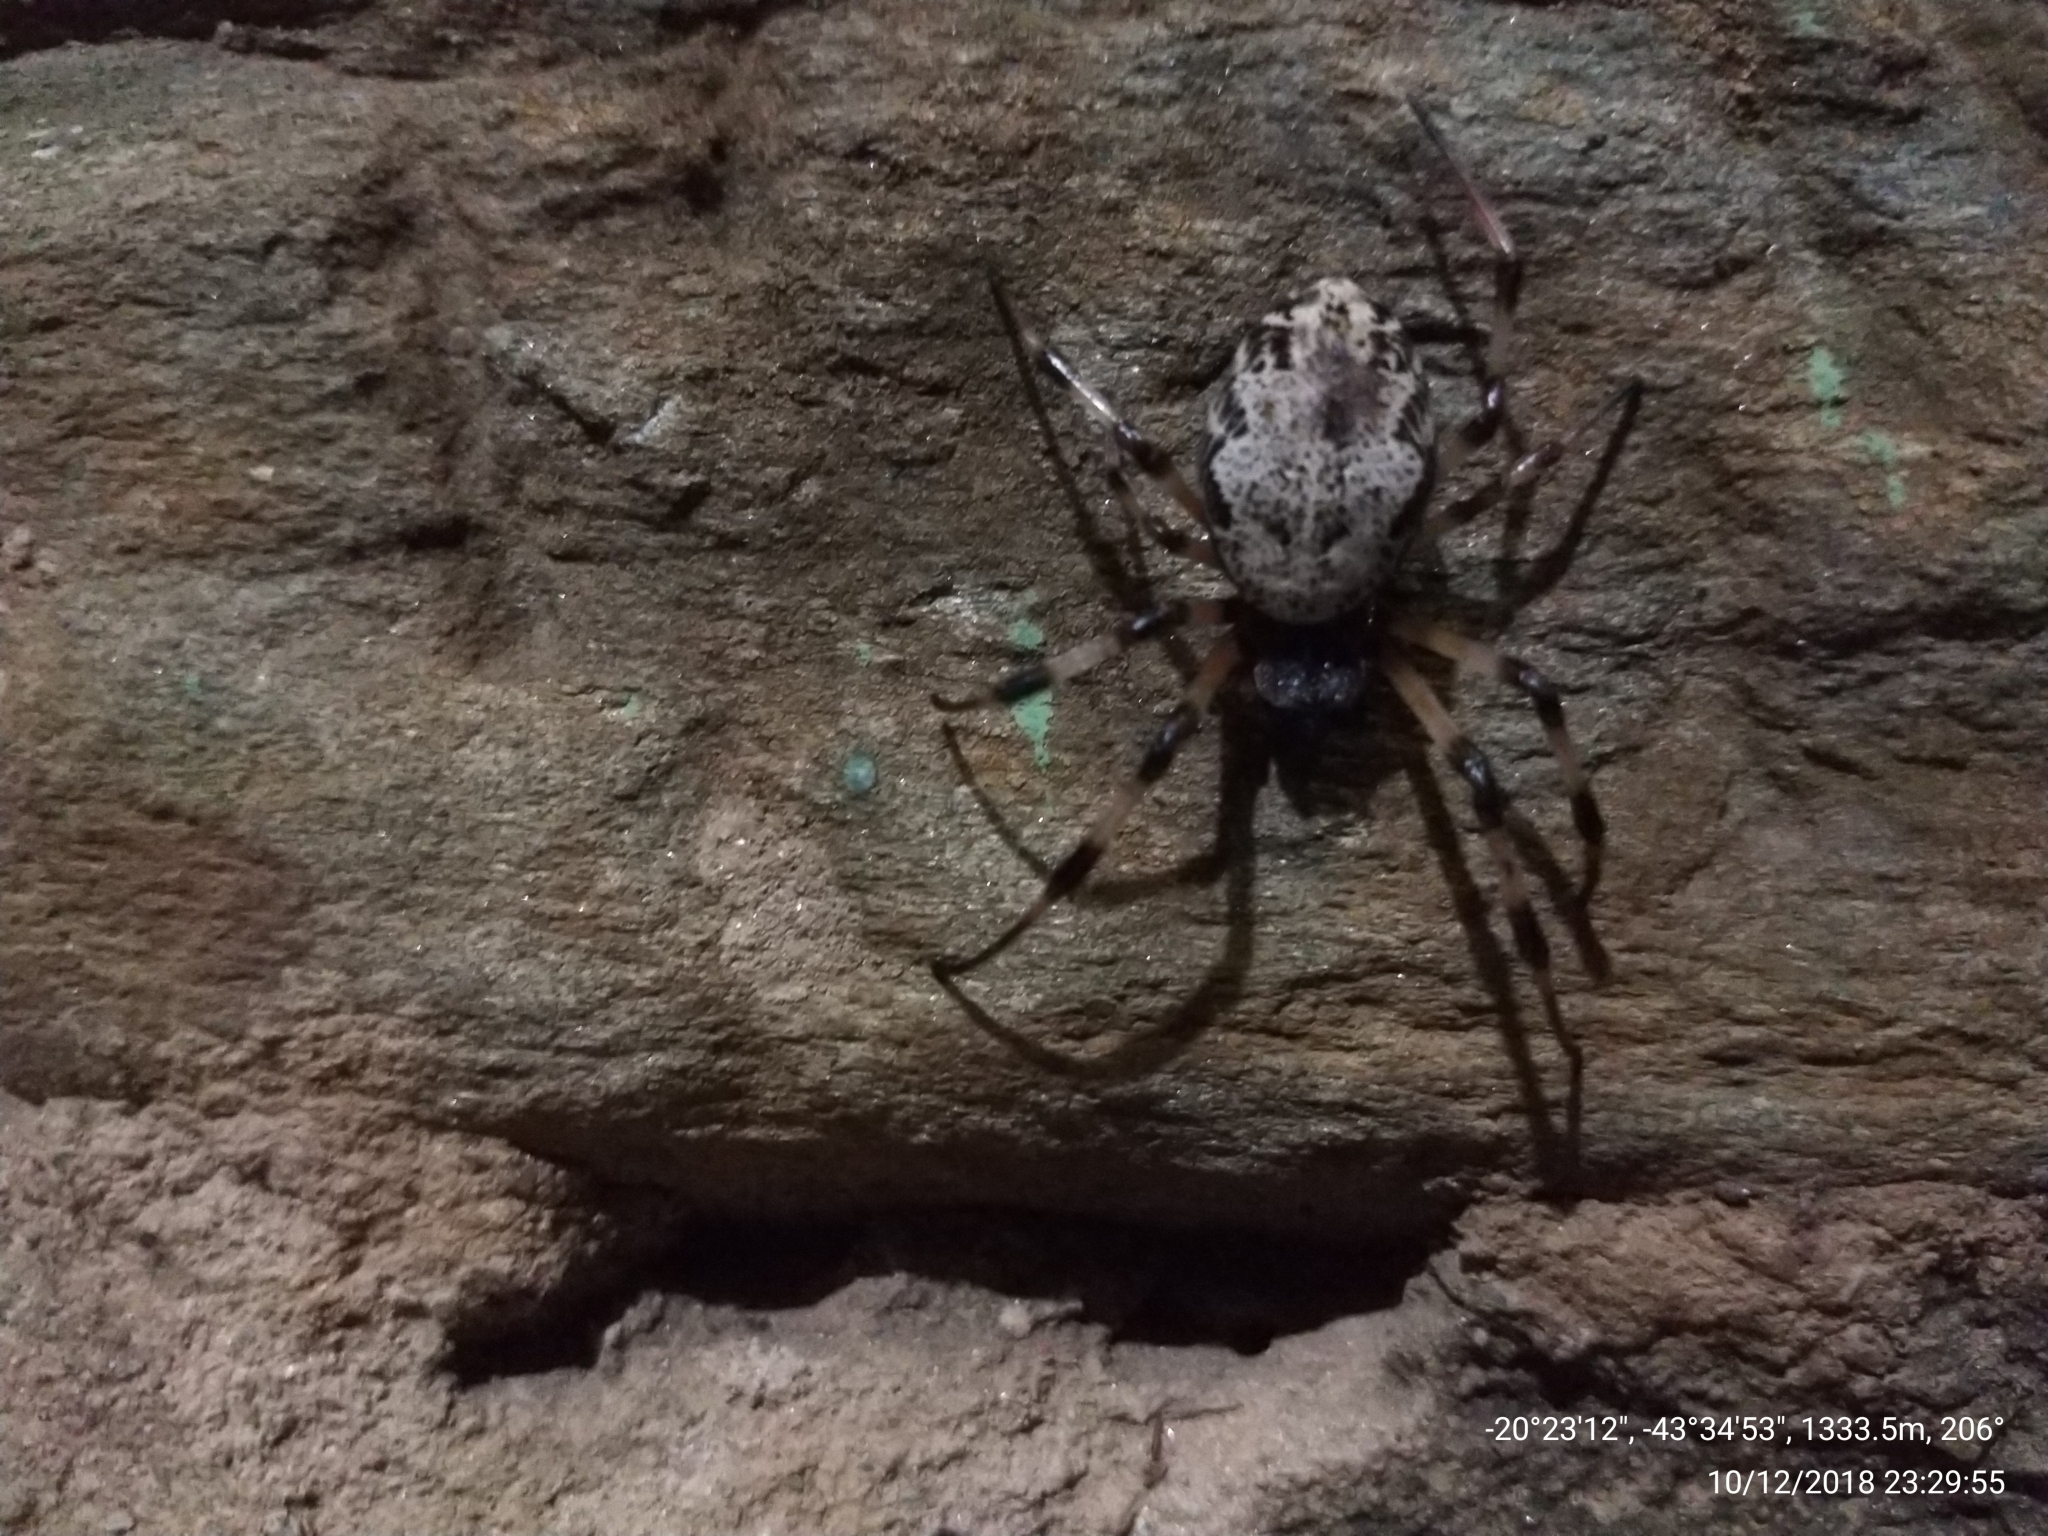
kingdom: Animalia
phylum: Arthropoda
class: Arachnida
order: Araneae
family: Araneidae
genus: Nephilingis
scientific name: Nephilingis cruentata
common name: African hermit spider
